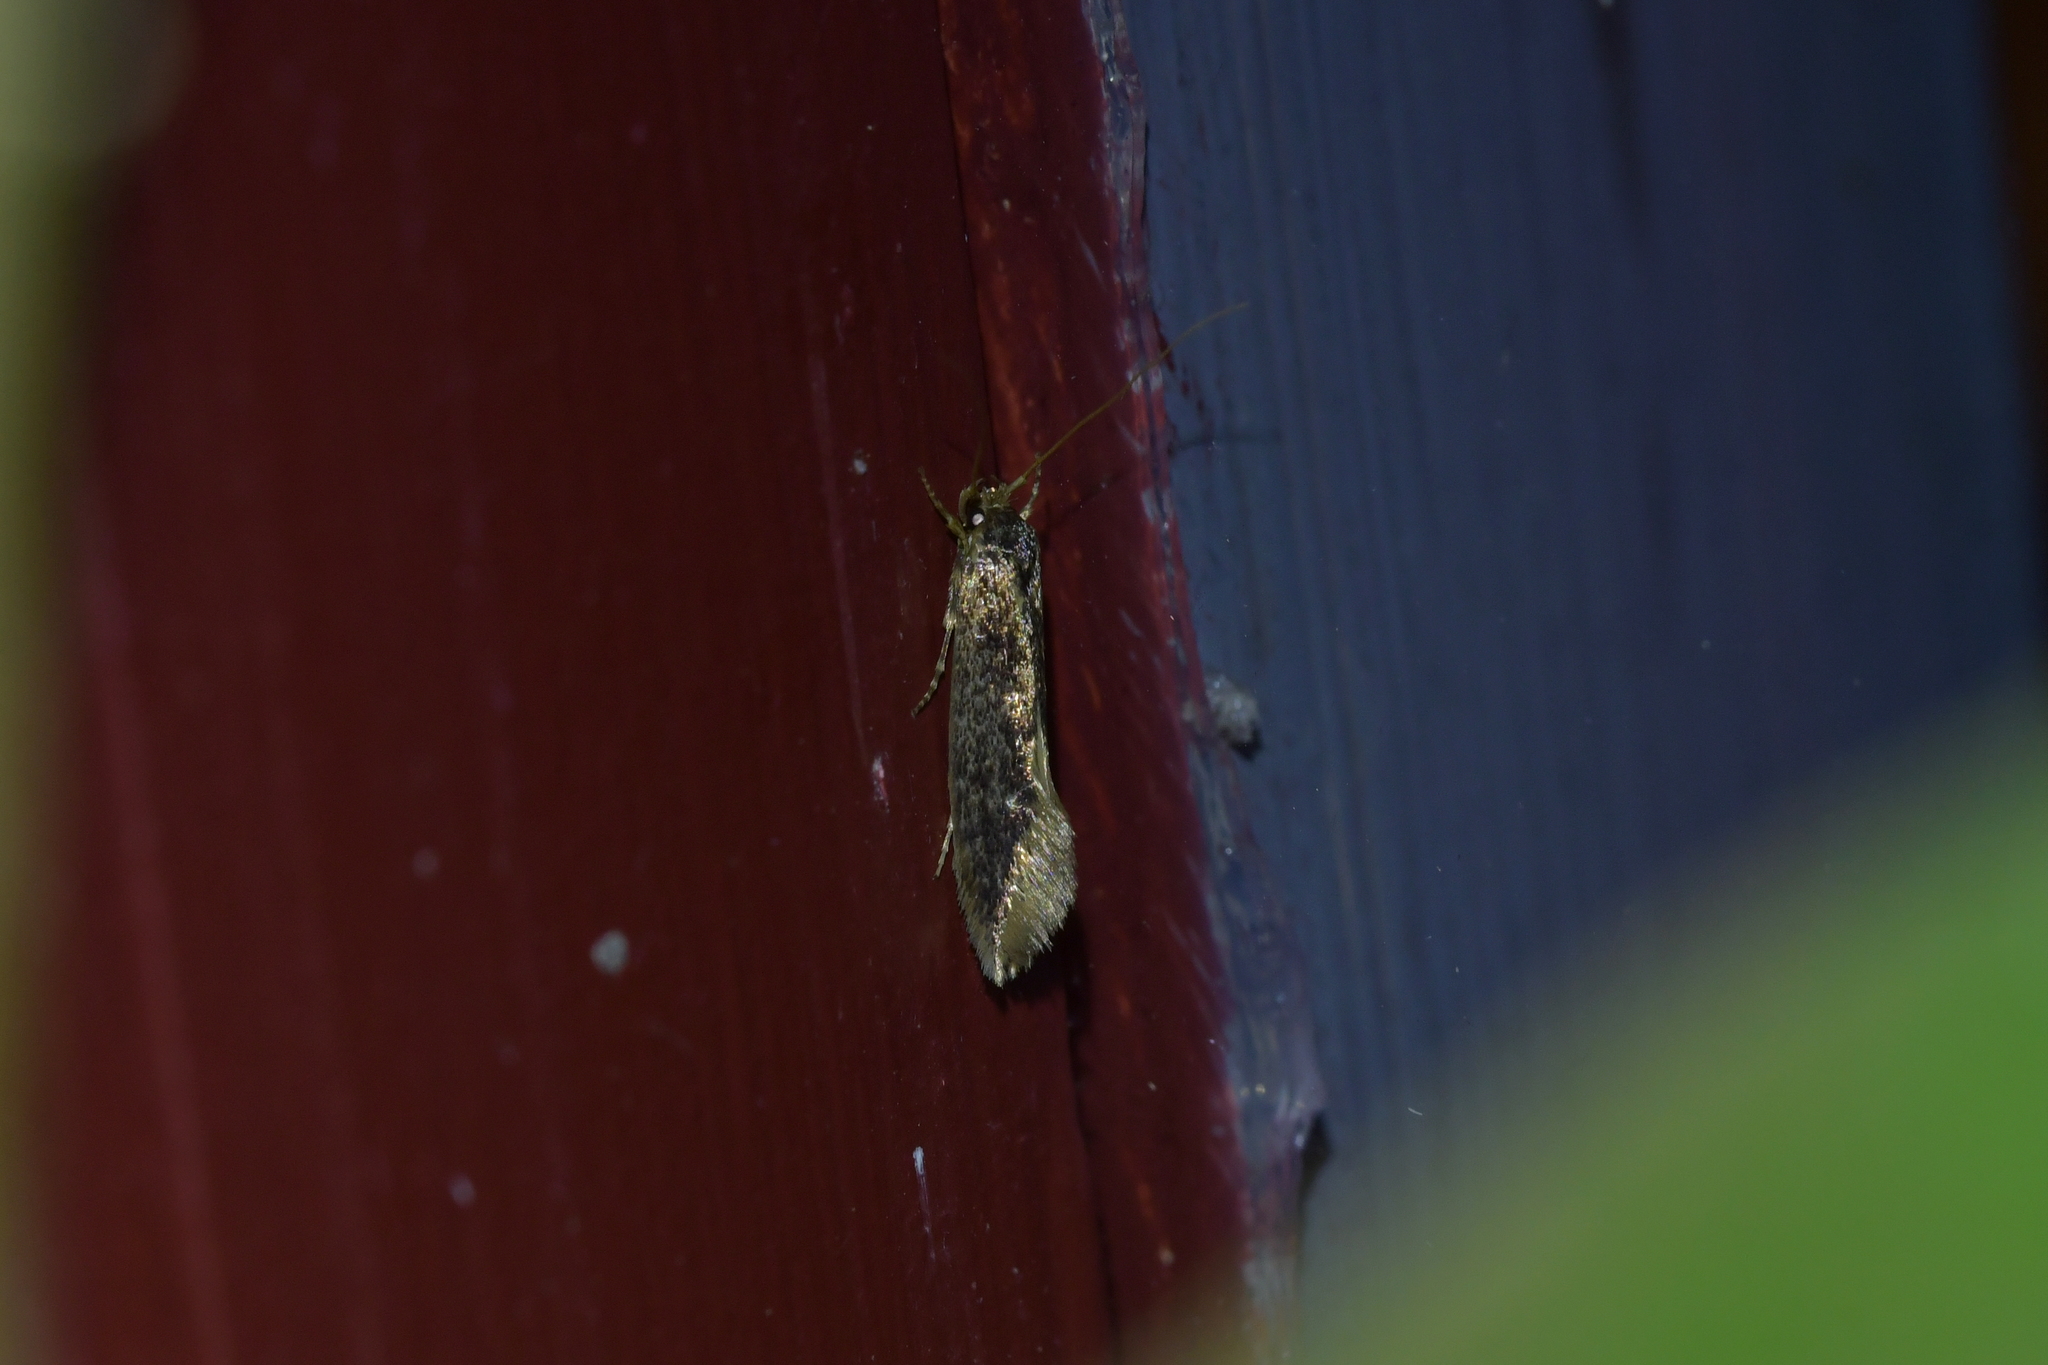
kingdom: Animalia
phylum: Arthropoda
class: Insecta
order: Lepidoptera
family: Tineidae
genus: Opogona
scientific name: Opogona omoscopa
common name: Moth
